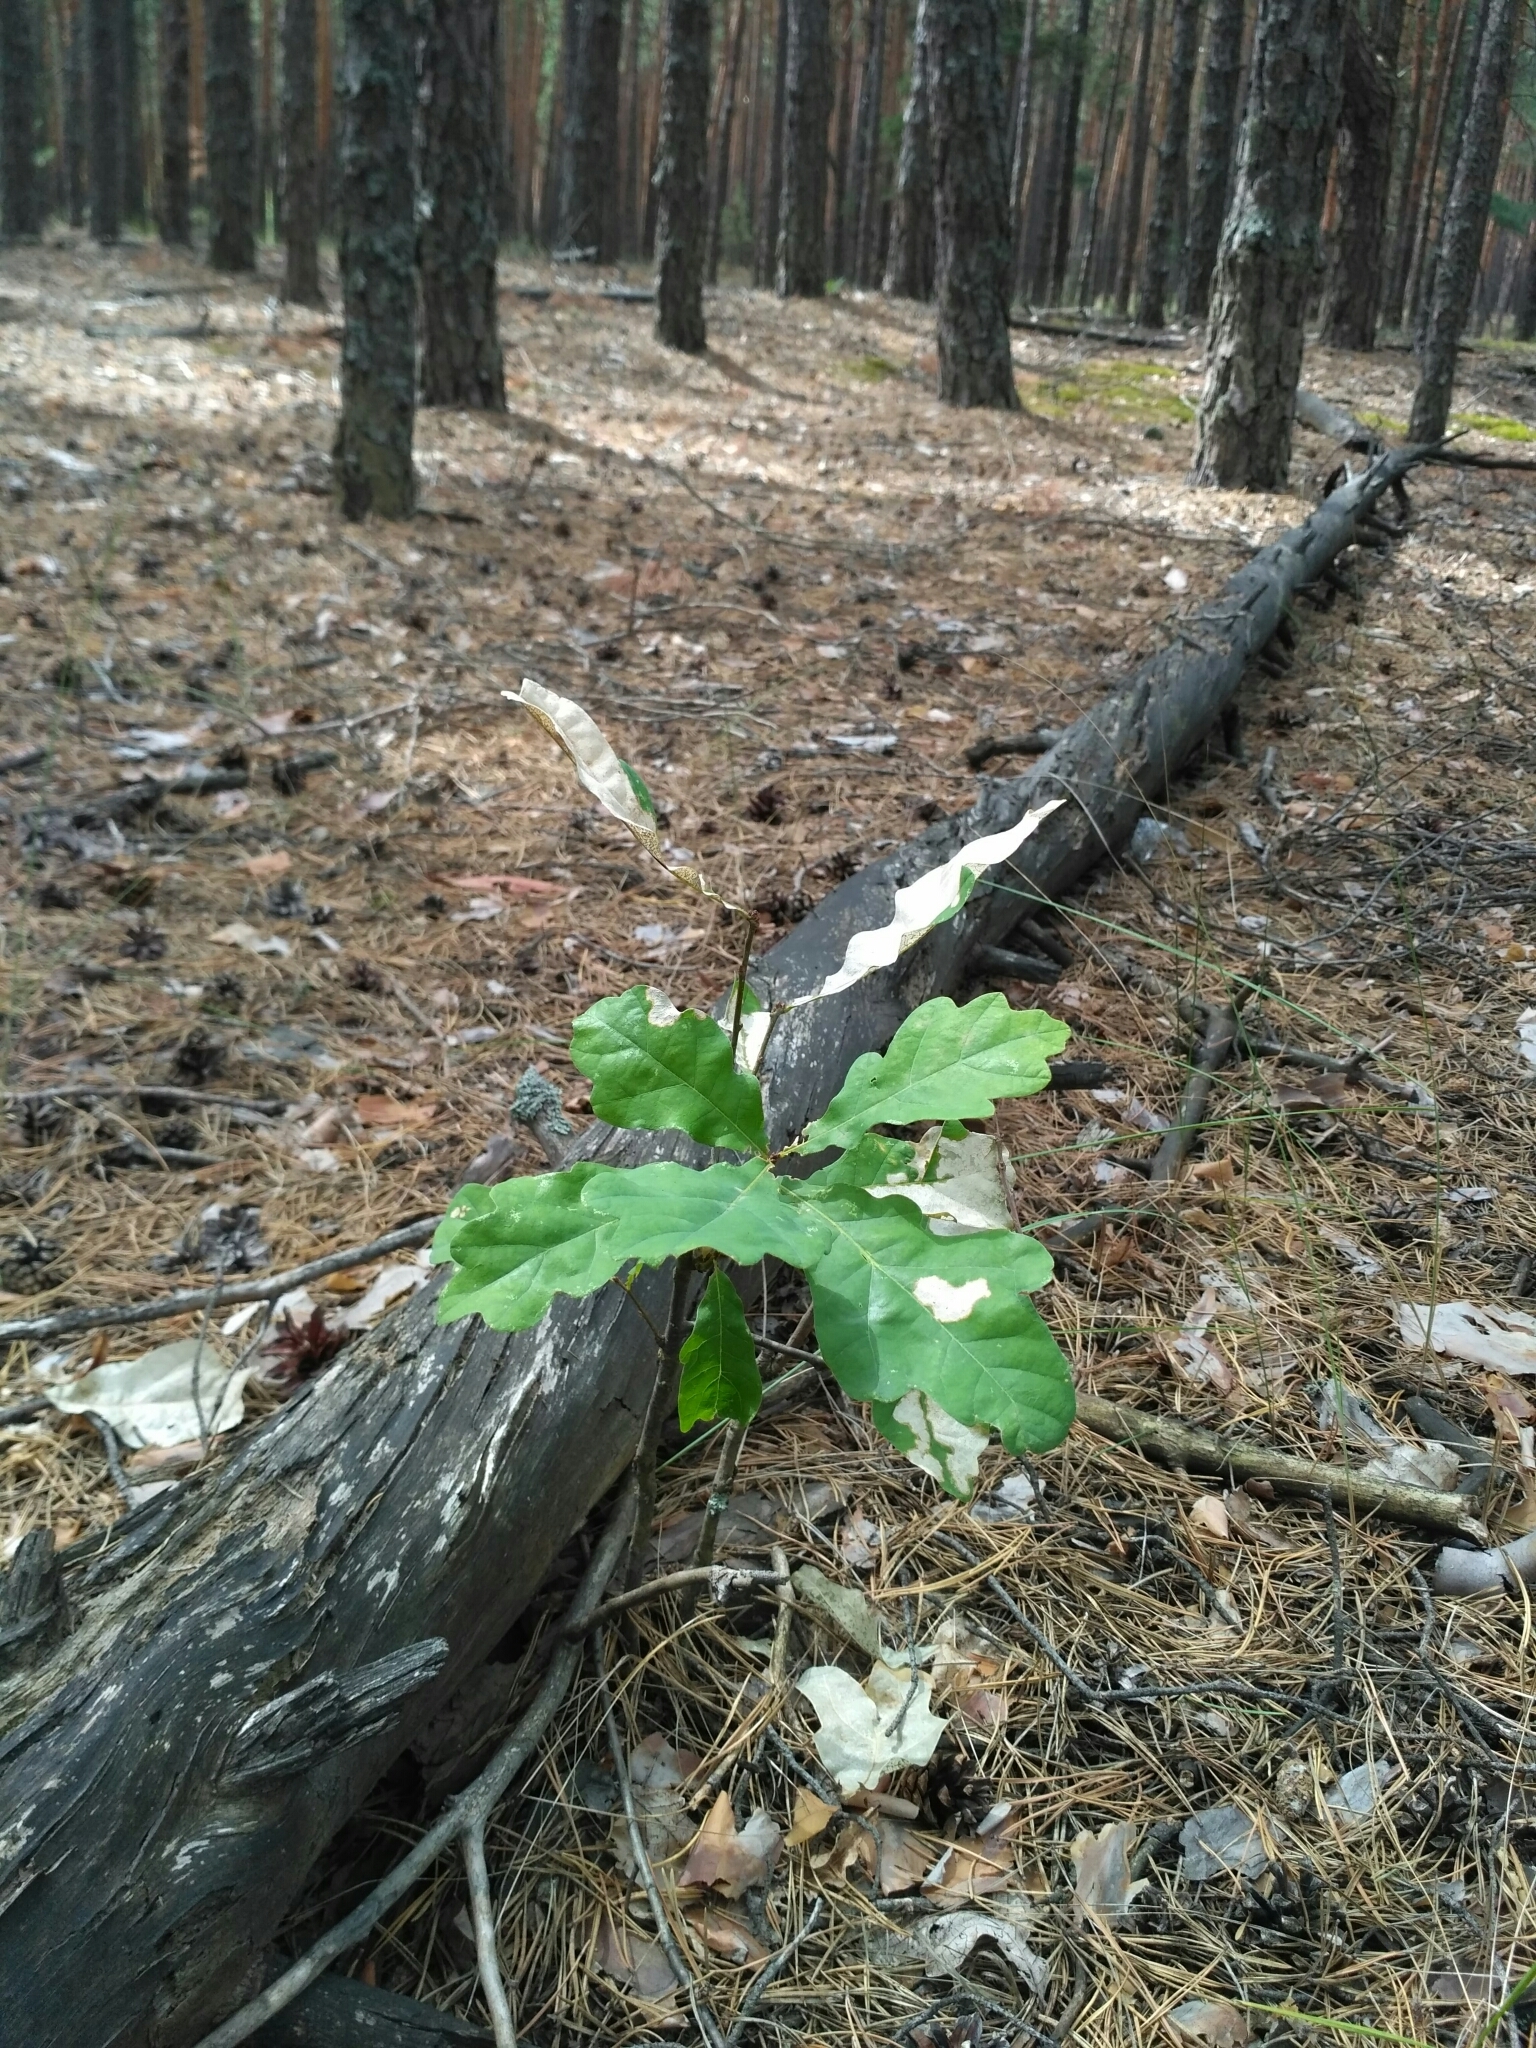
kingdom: Plantae
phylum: Tracheophyta
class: Magnoliopsida
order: Fagales
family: Fagaceae
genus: Quercus
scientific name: Quercus robur
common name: Pedunculate oak
